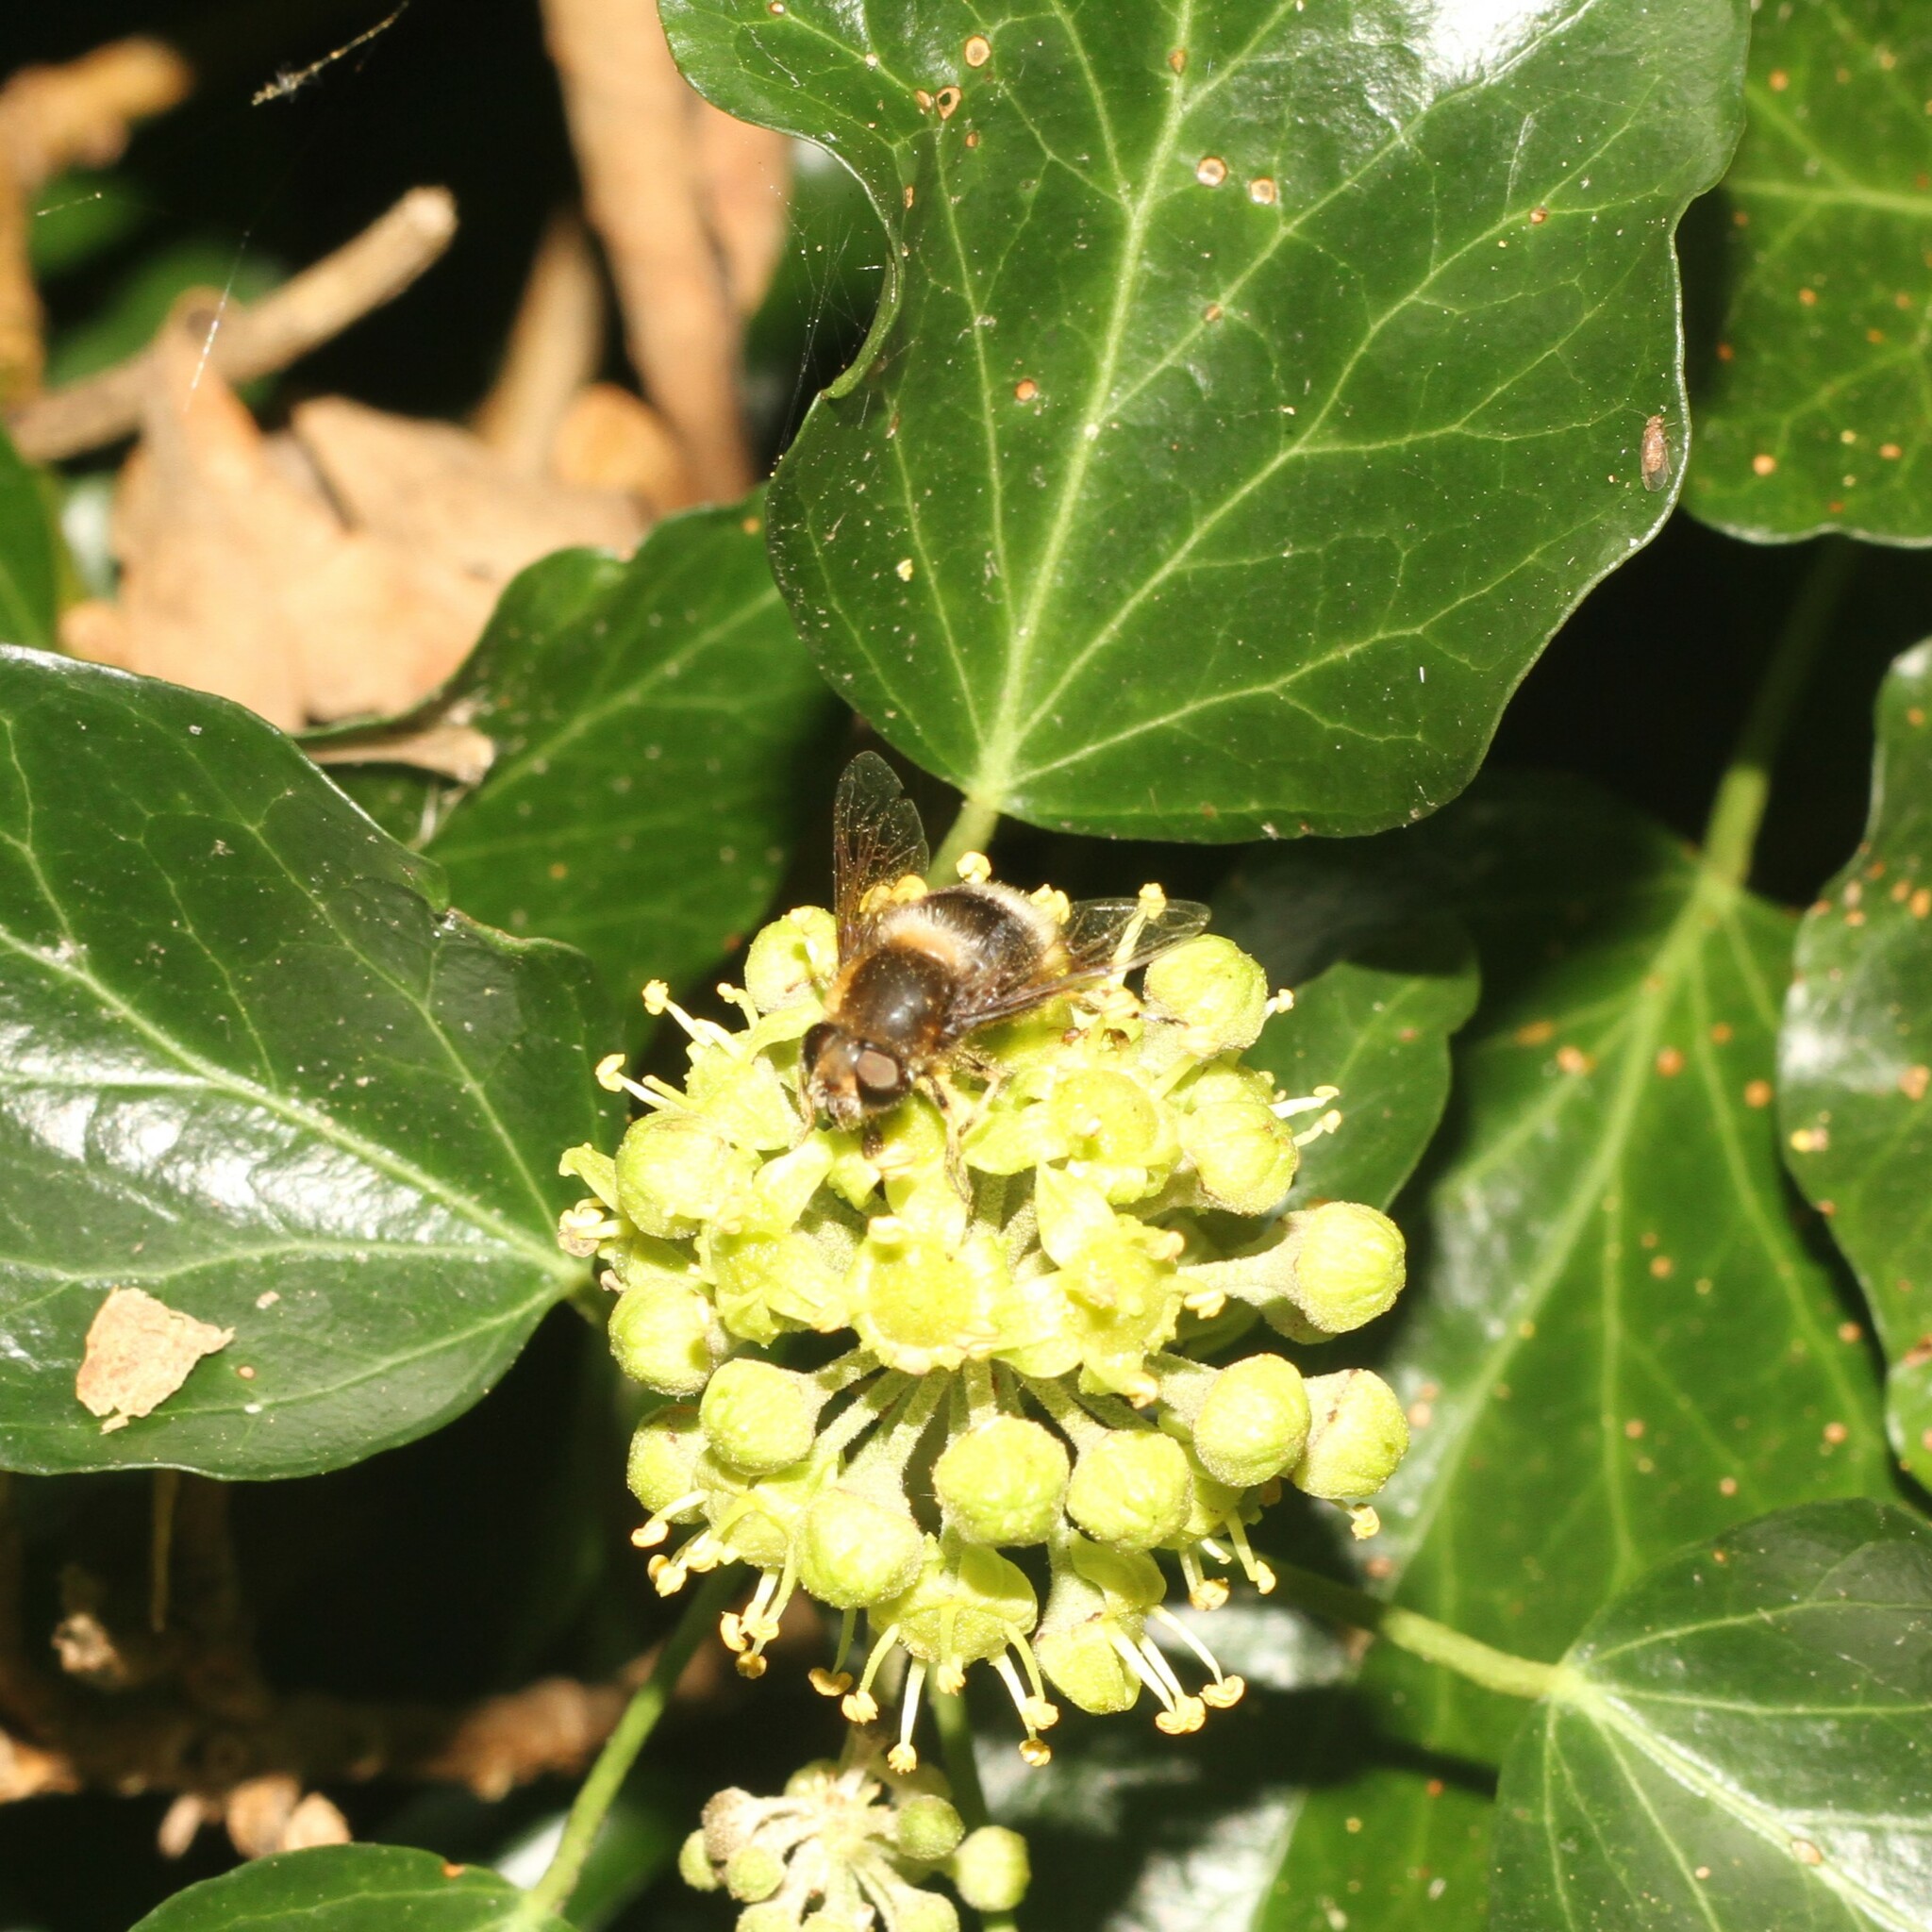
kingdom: Animalia
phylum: Arthropoda
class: Insecta
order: Diptera
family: Syrphidae
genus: Eristalis
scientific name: Eristalis intricaria
